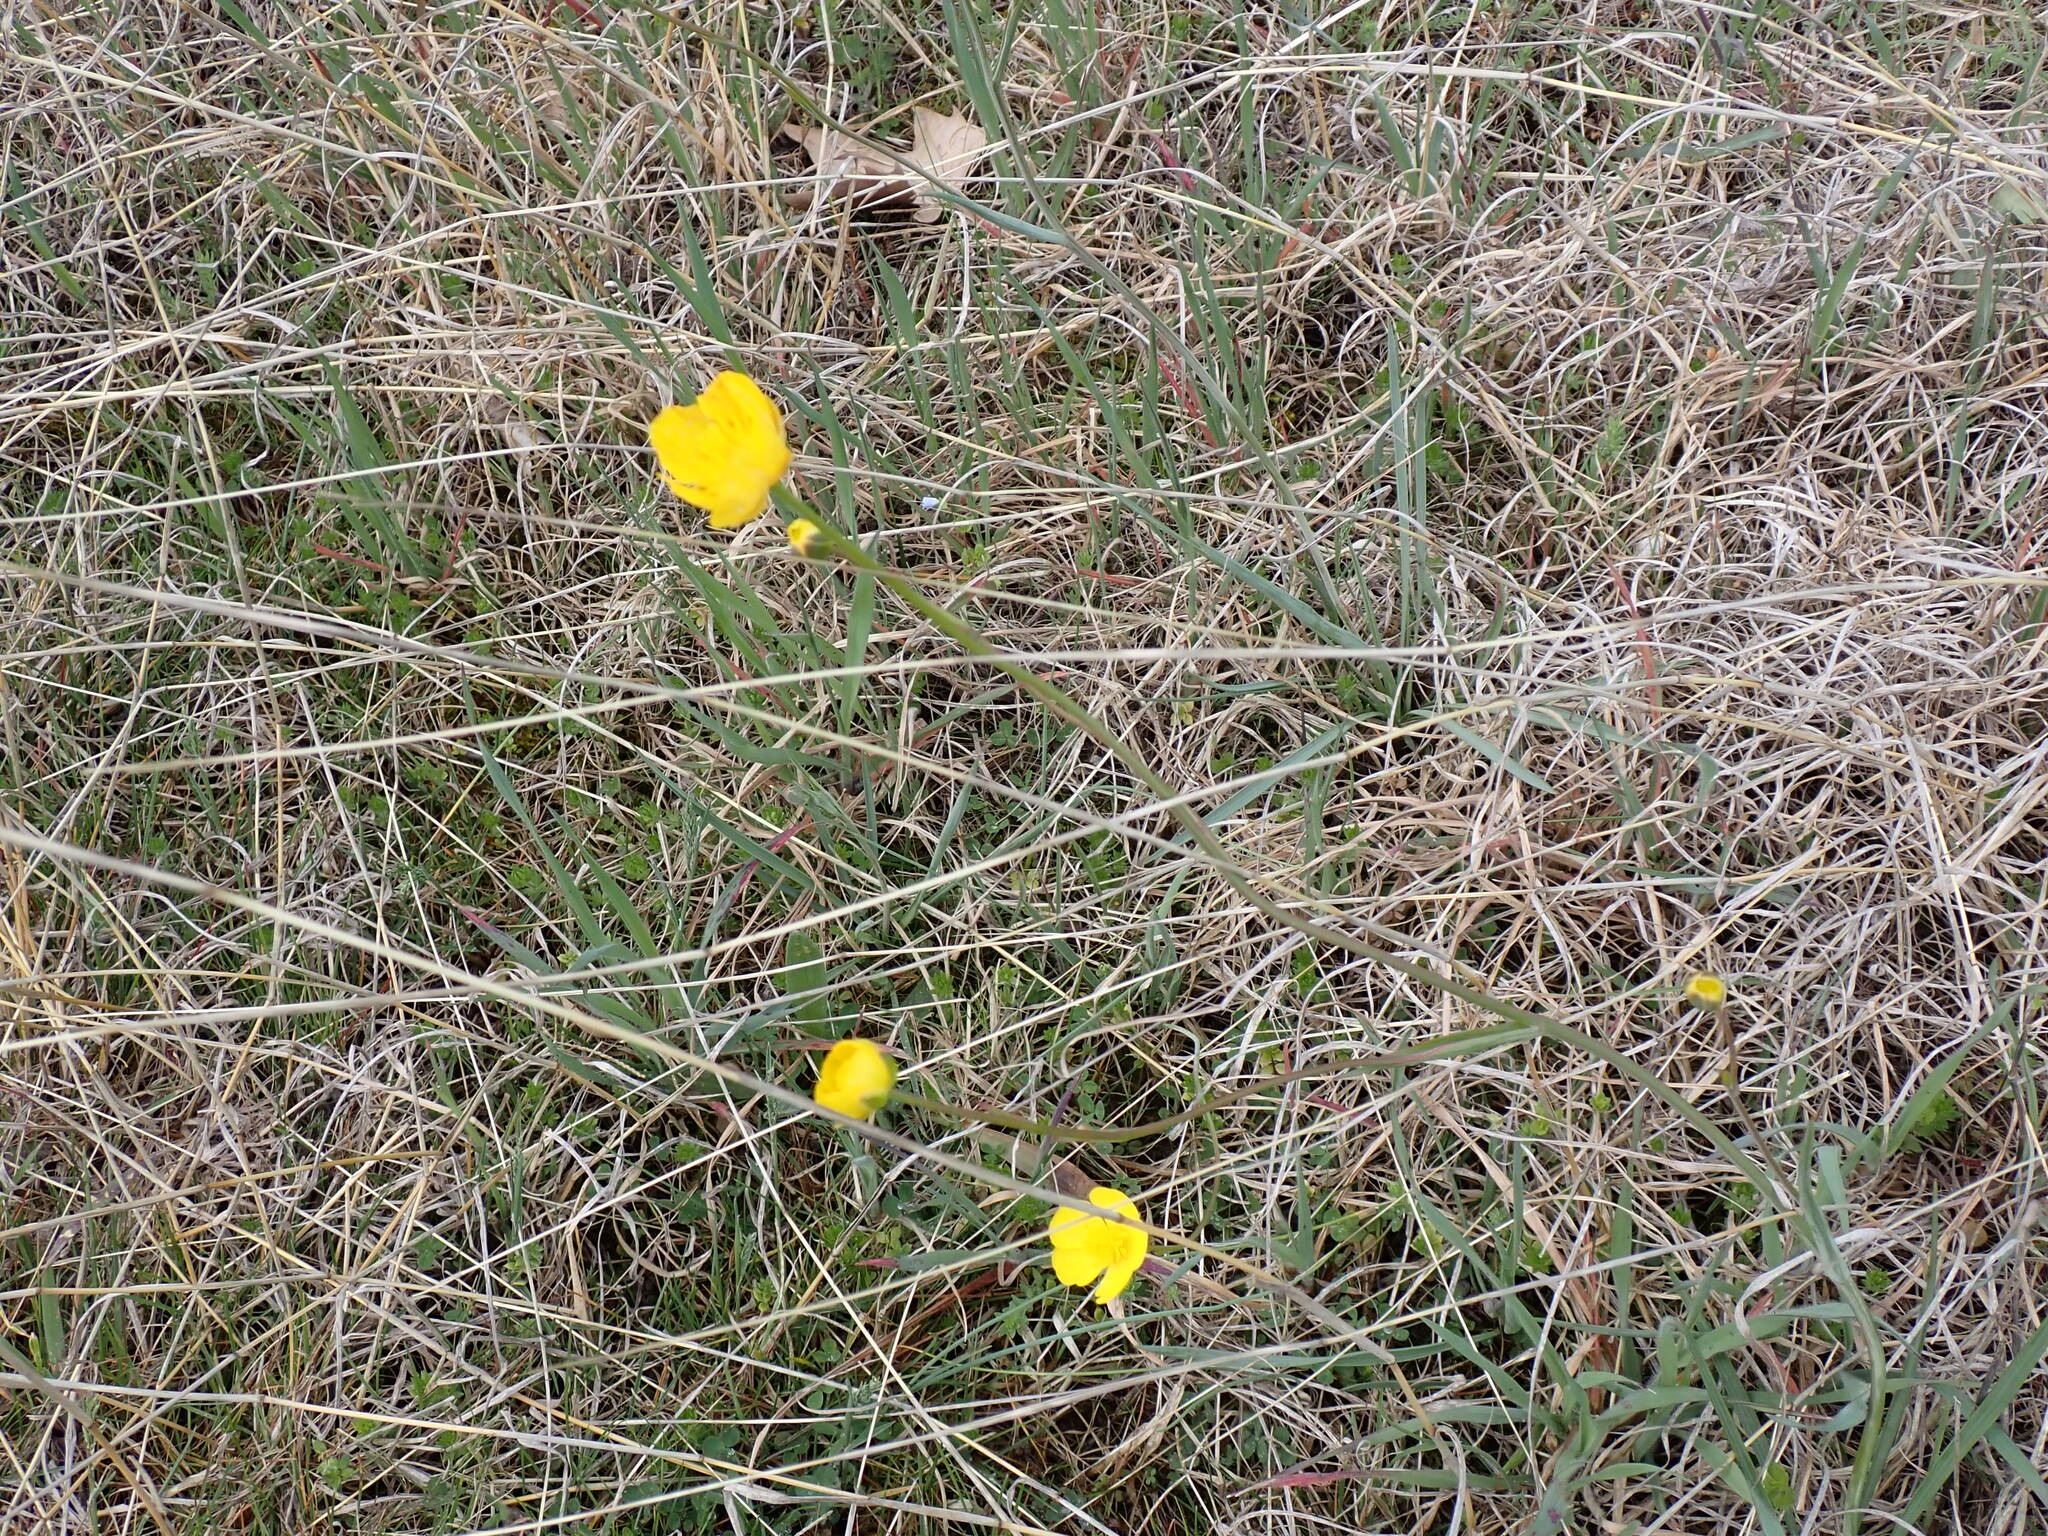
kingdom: Plantae
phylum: Tracheophyta
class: Magnoliopsida
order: Ranunculales
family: Ranunculaceae
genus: Ranunculus
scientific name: Ranunculus gramineus
